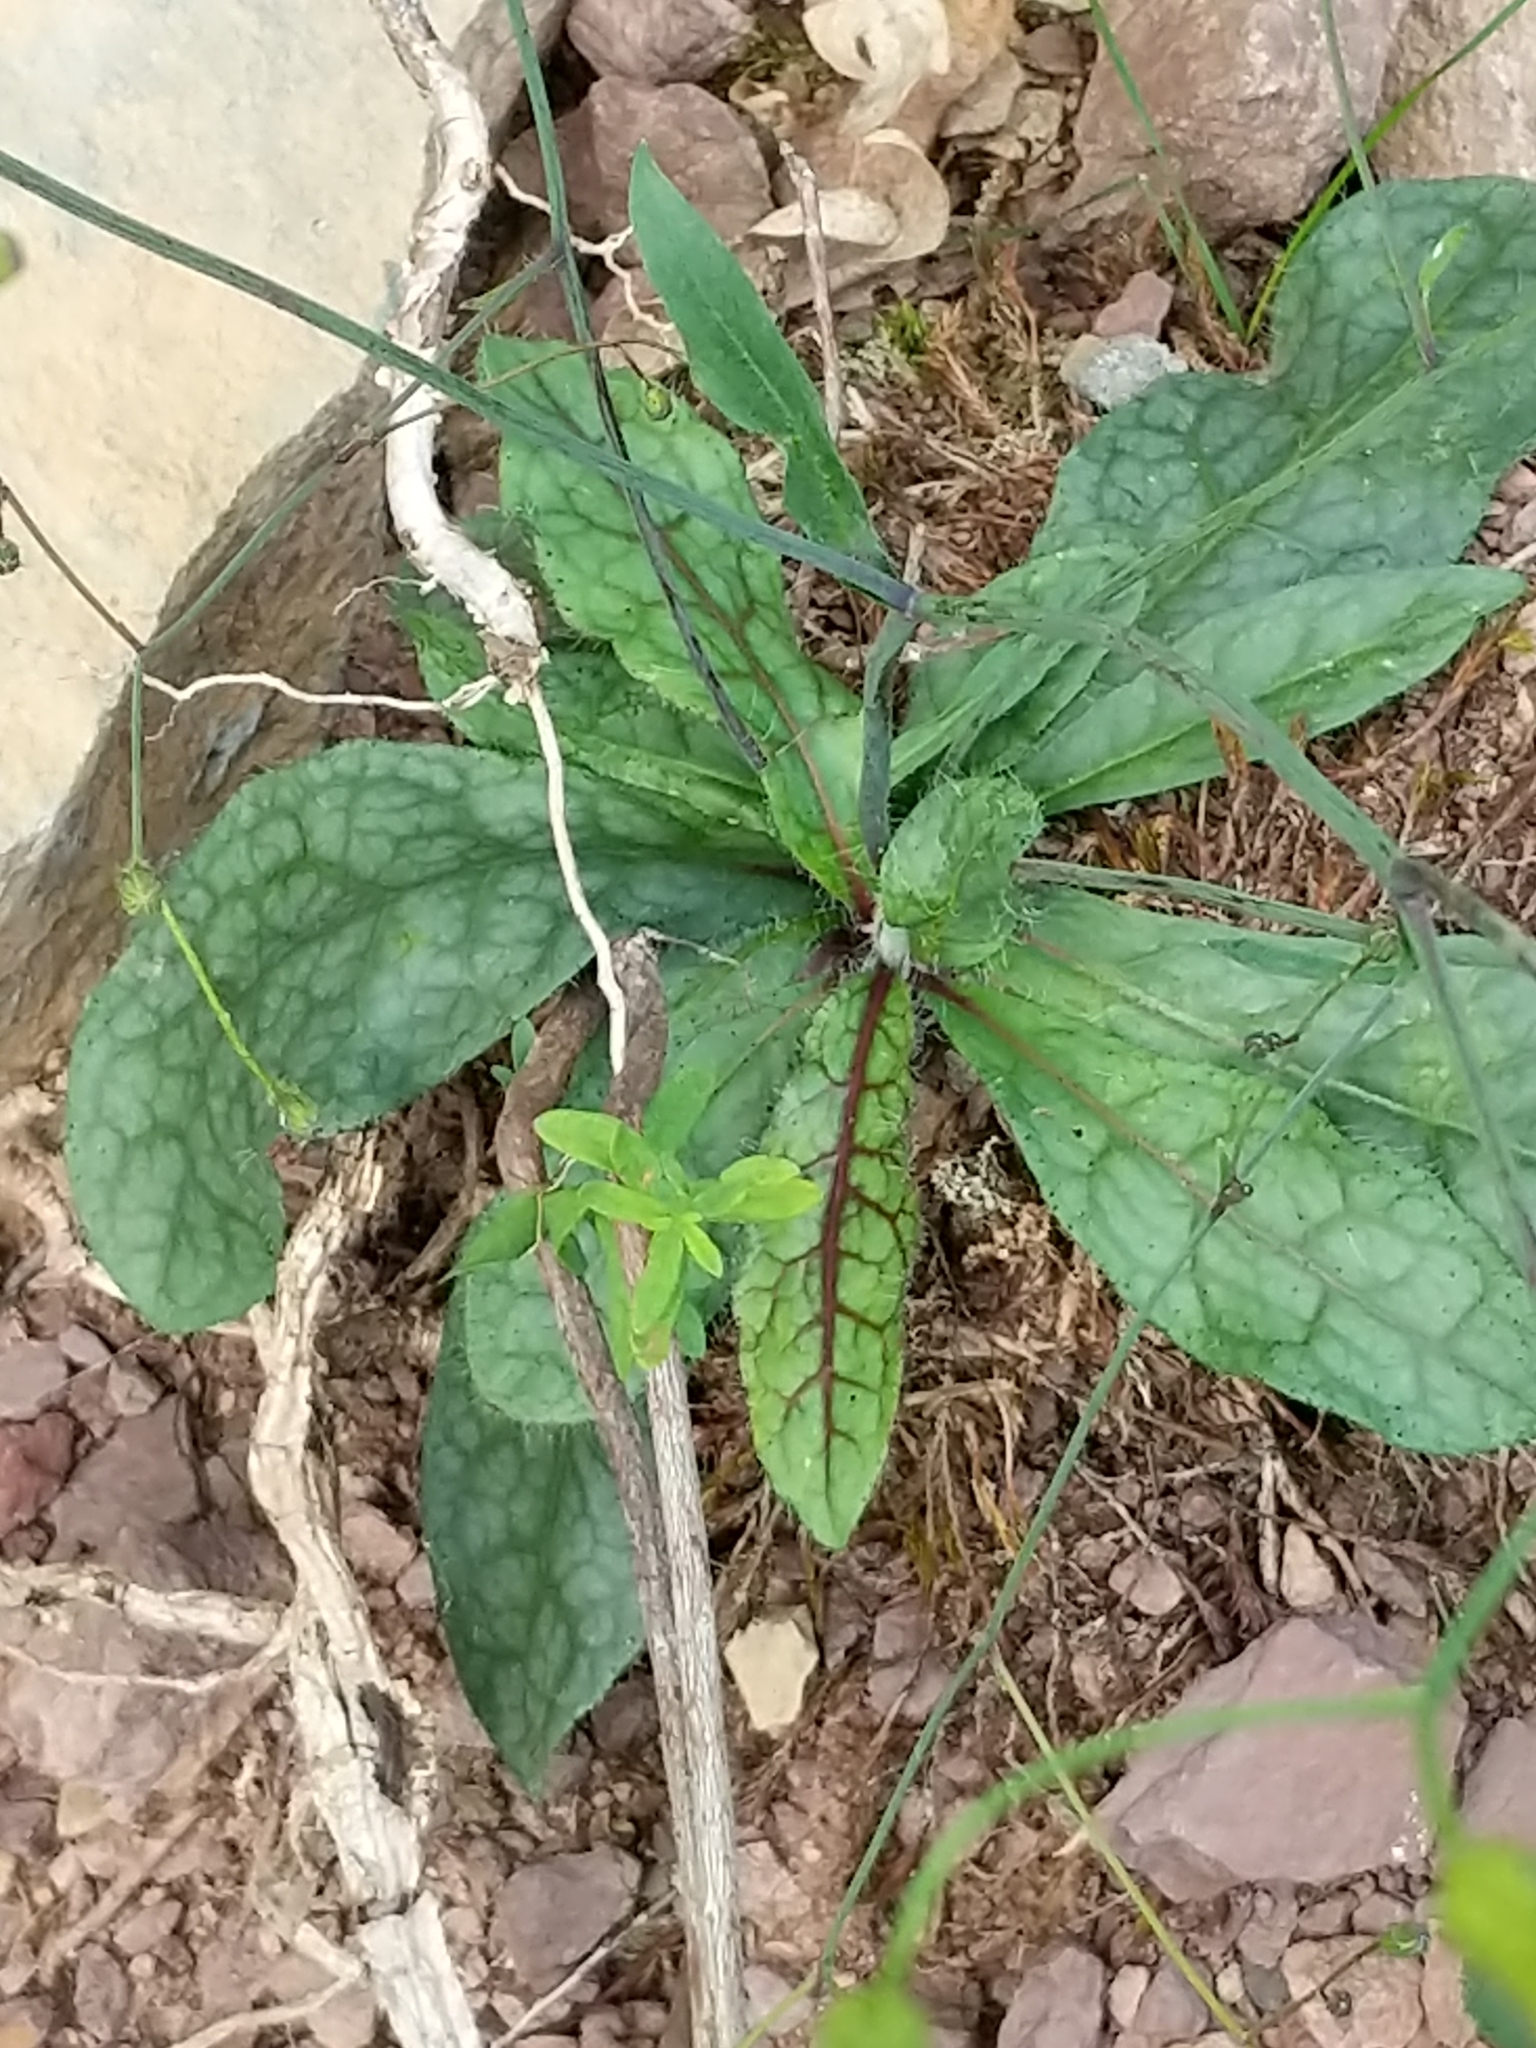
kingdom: Plantae
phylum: Tracheophyta
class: Magnoliopsida
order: Asterales
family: Asteraceae
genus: Hieracium
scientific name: Hieracium venosum
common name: Rattlesnake hawkweed
